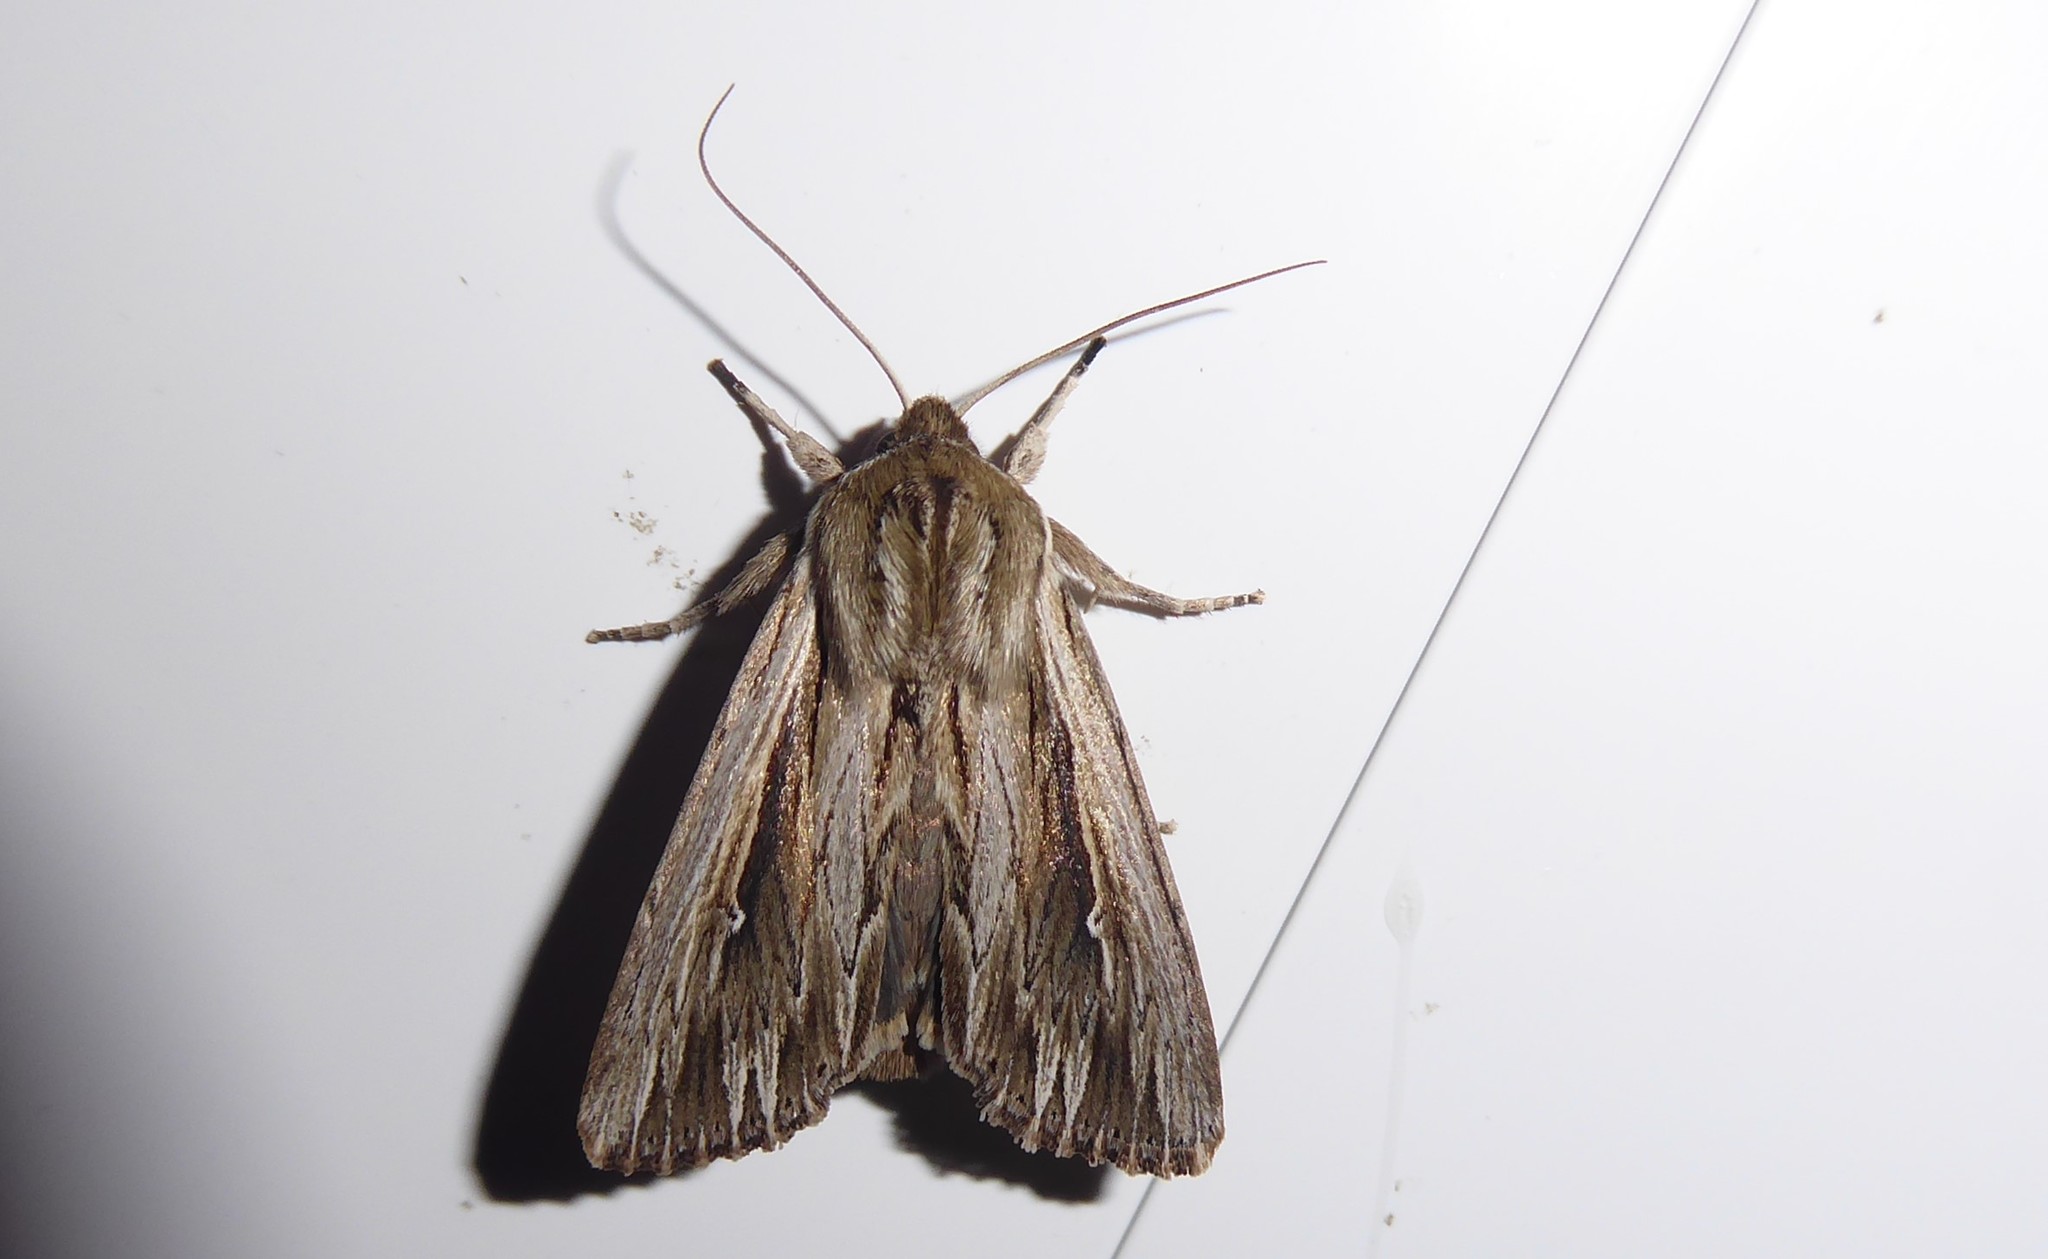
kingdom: Animalia
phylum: Arthropoda
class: Insecta
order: Lepidoptera
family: Noctuidae
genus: Persectania
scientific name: Persectania aversa
